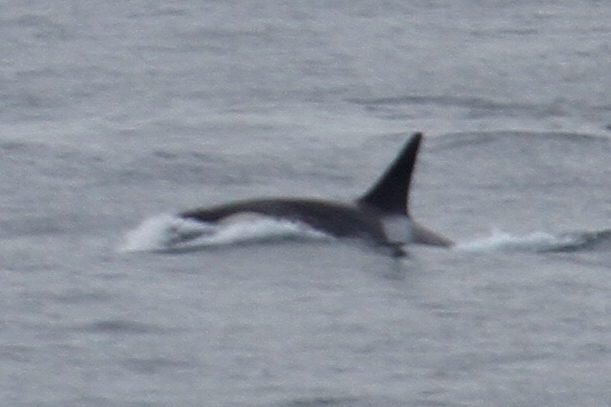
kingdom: Animalia
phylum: Chordata
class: Mammalia
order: Cetacea
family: Delphinidae
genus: Orcinus
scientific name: Orcinus orca
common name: Killer whale
